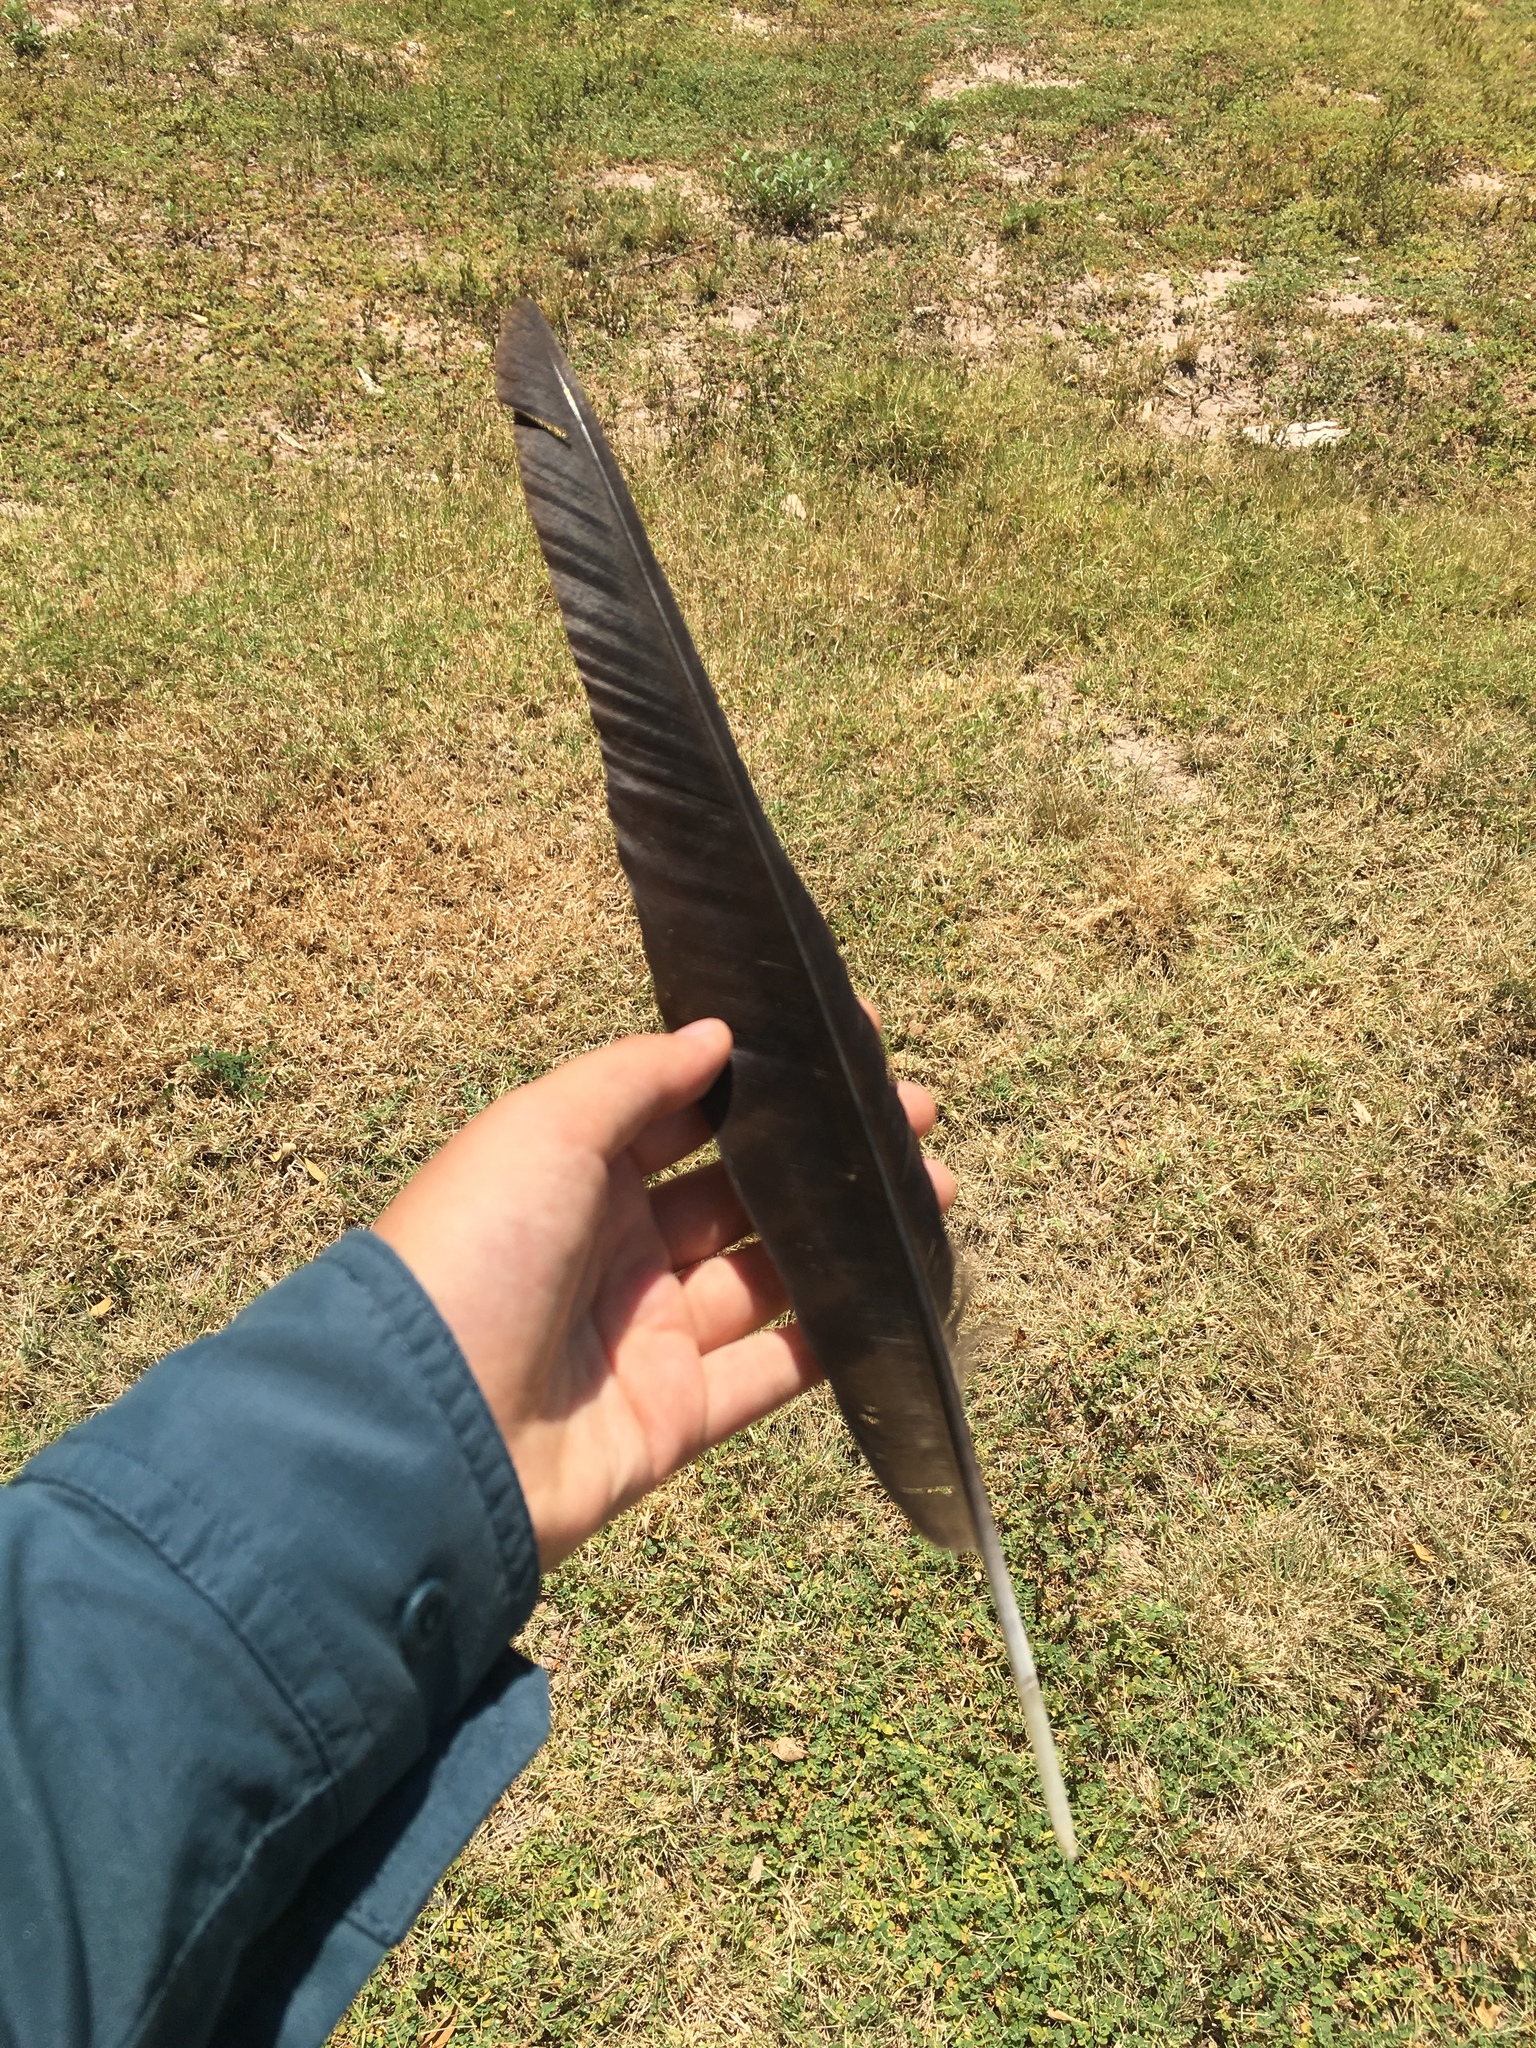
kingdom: Animalia
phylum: Chordata
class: Aves
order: Passeriformes
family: Corvidae
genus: Corvus
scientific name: Corvus corax
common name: Common raven
